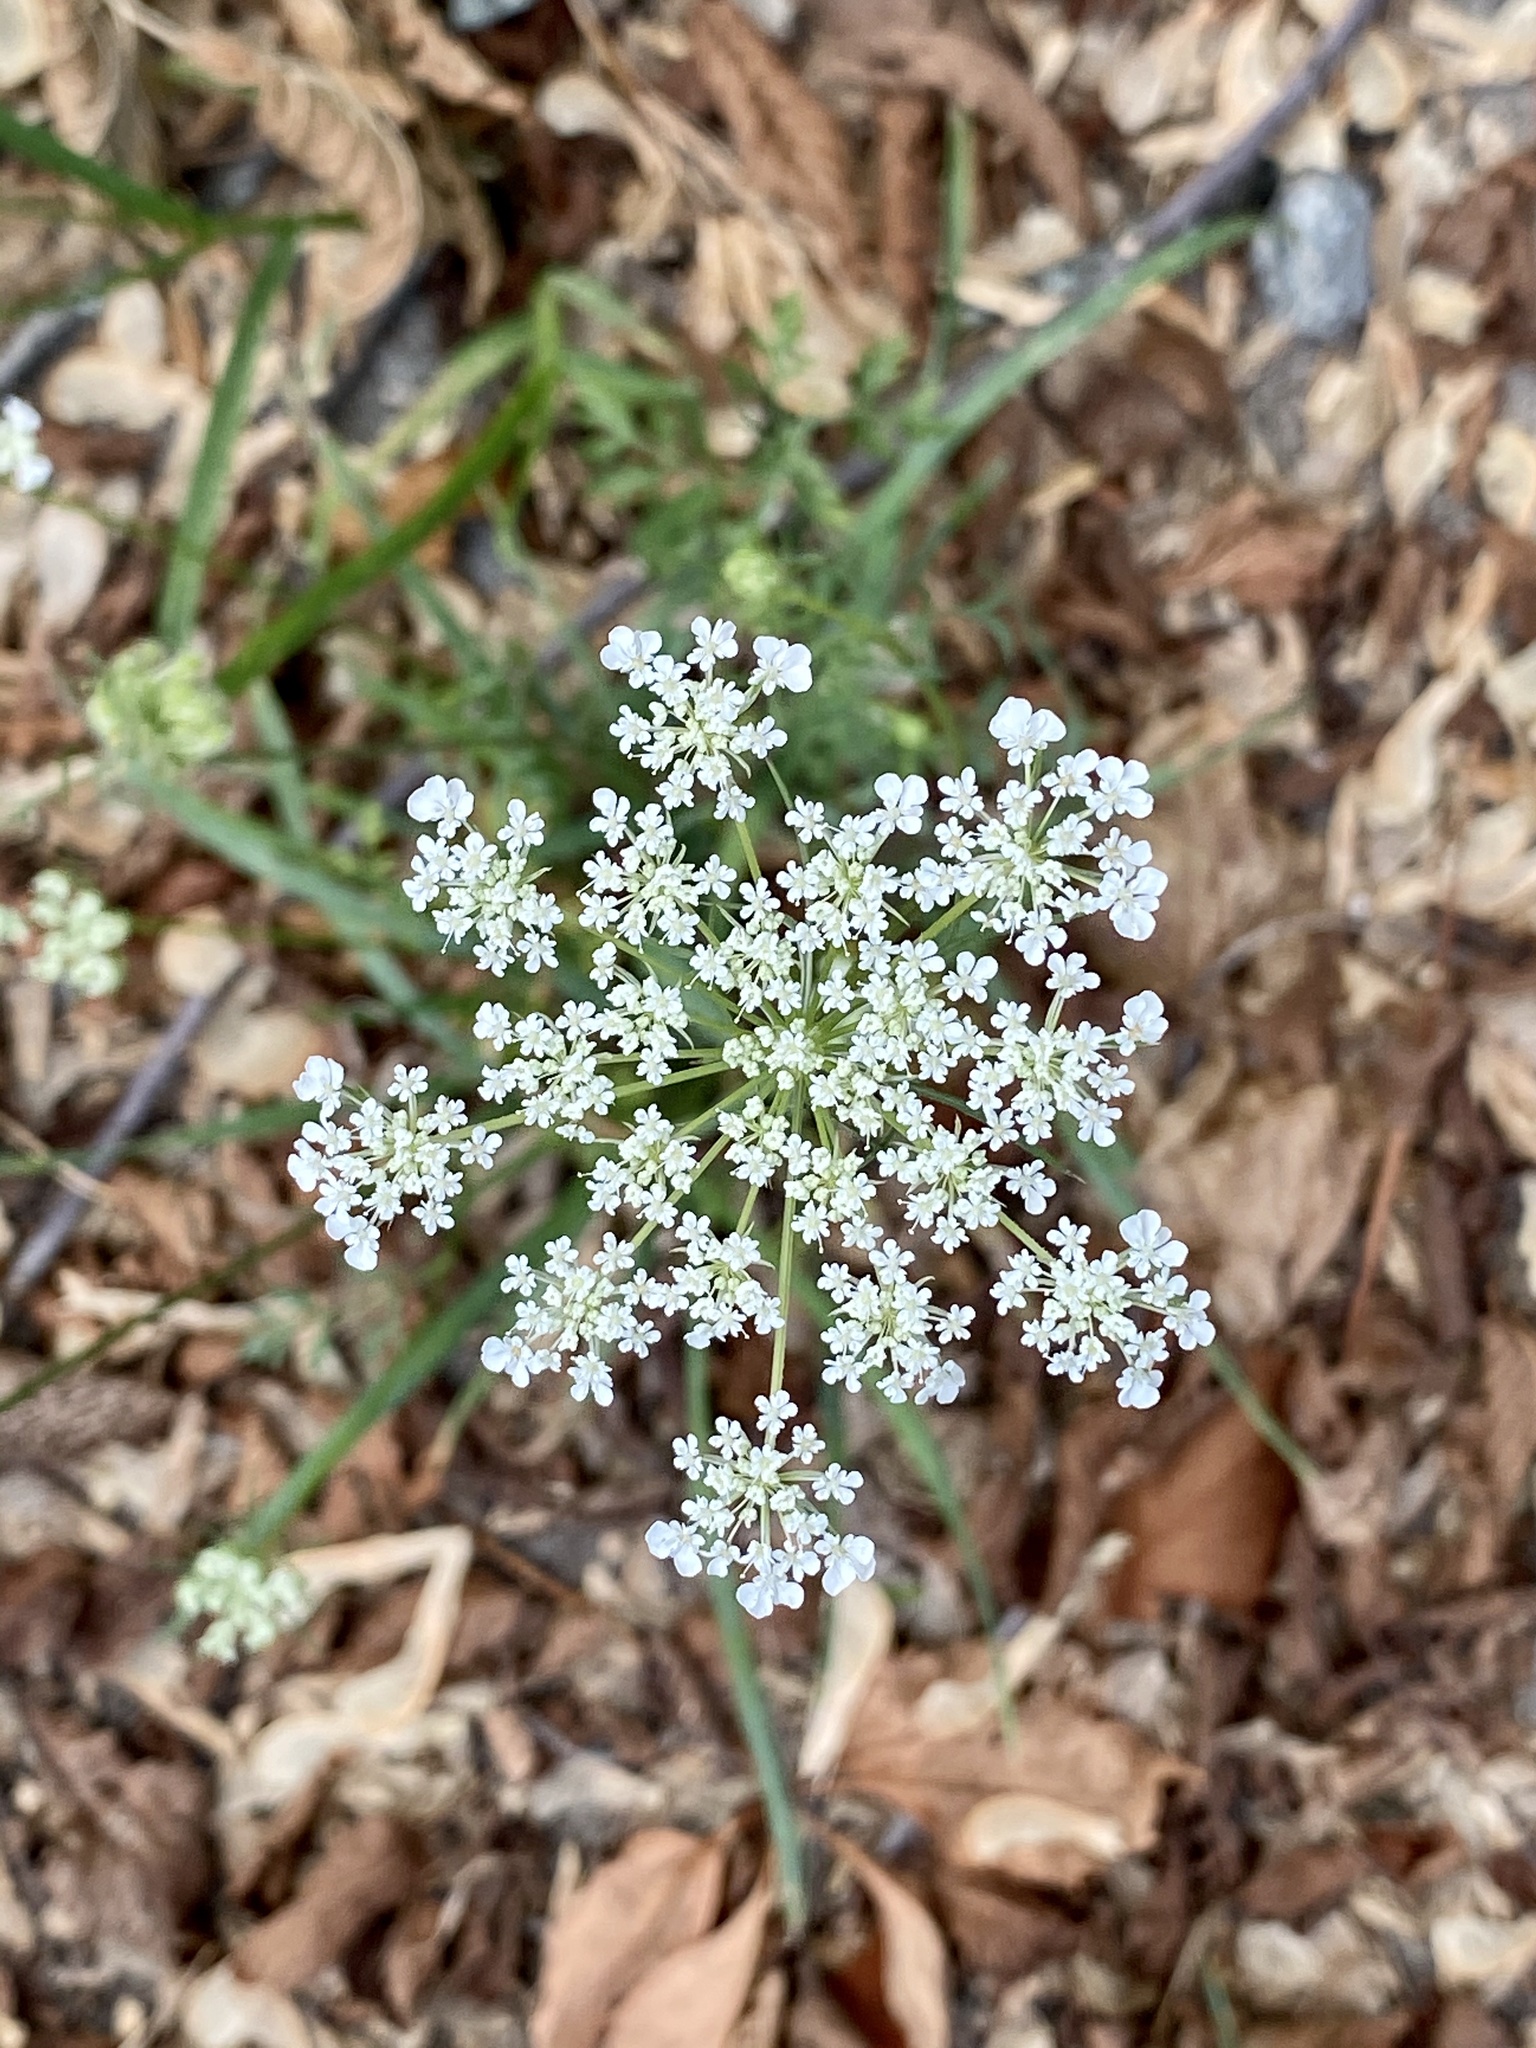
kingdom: Plantae
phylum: Tracheophyta
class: Magnoliopsida
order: Apiales
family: Apiaceae
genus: Daucus
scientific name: Daucus carota
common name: Wild carrot
